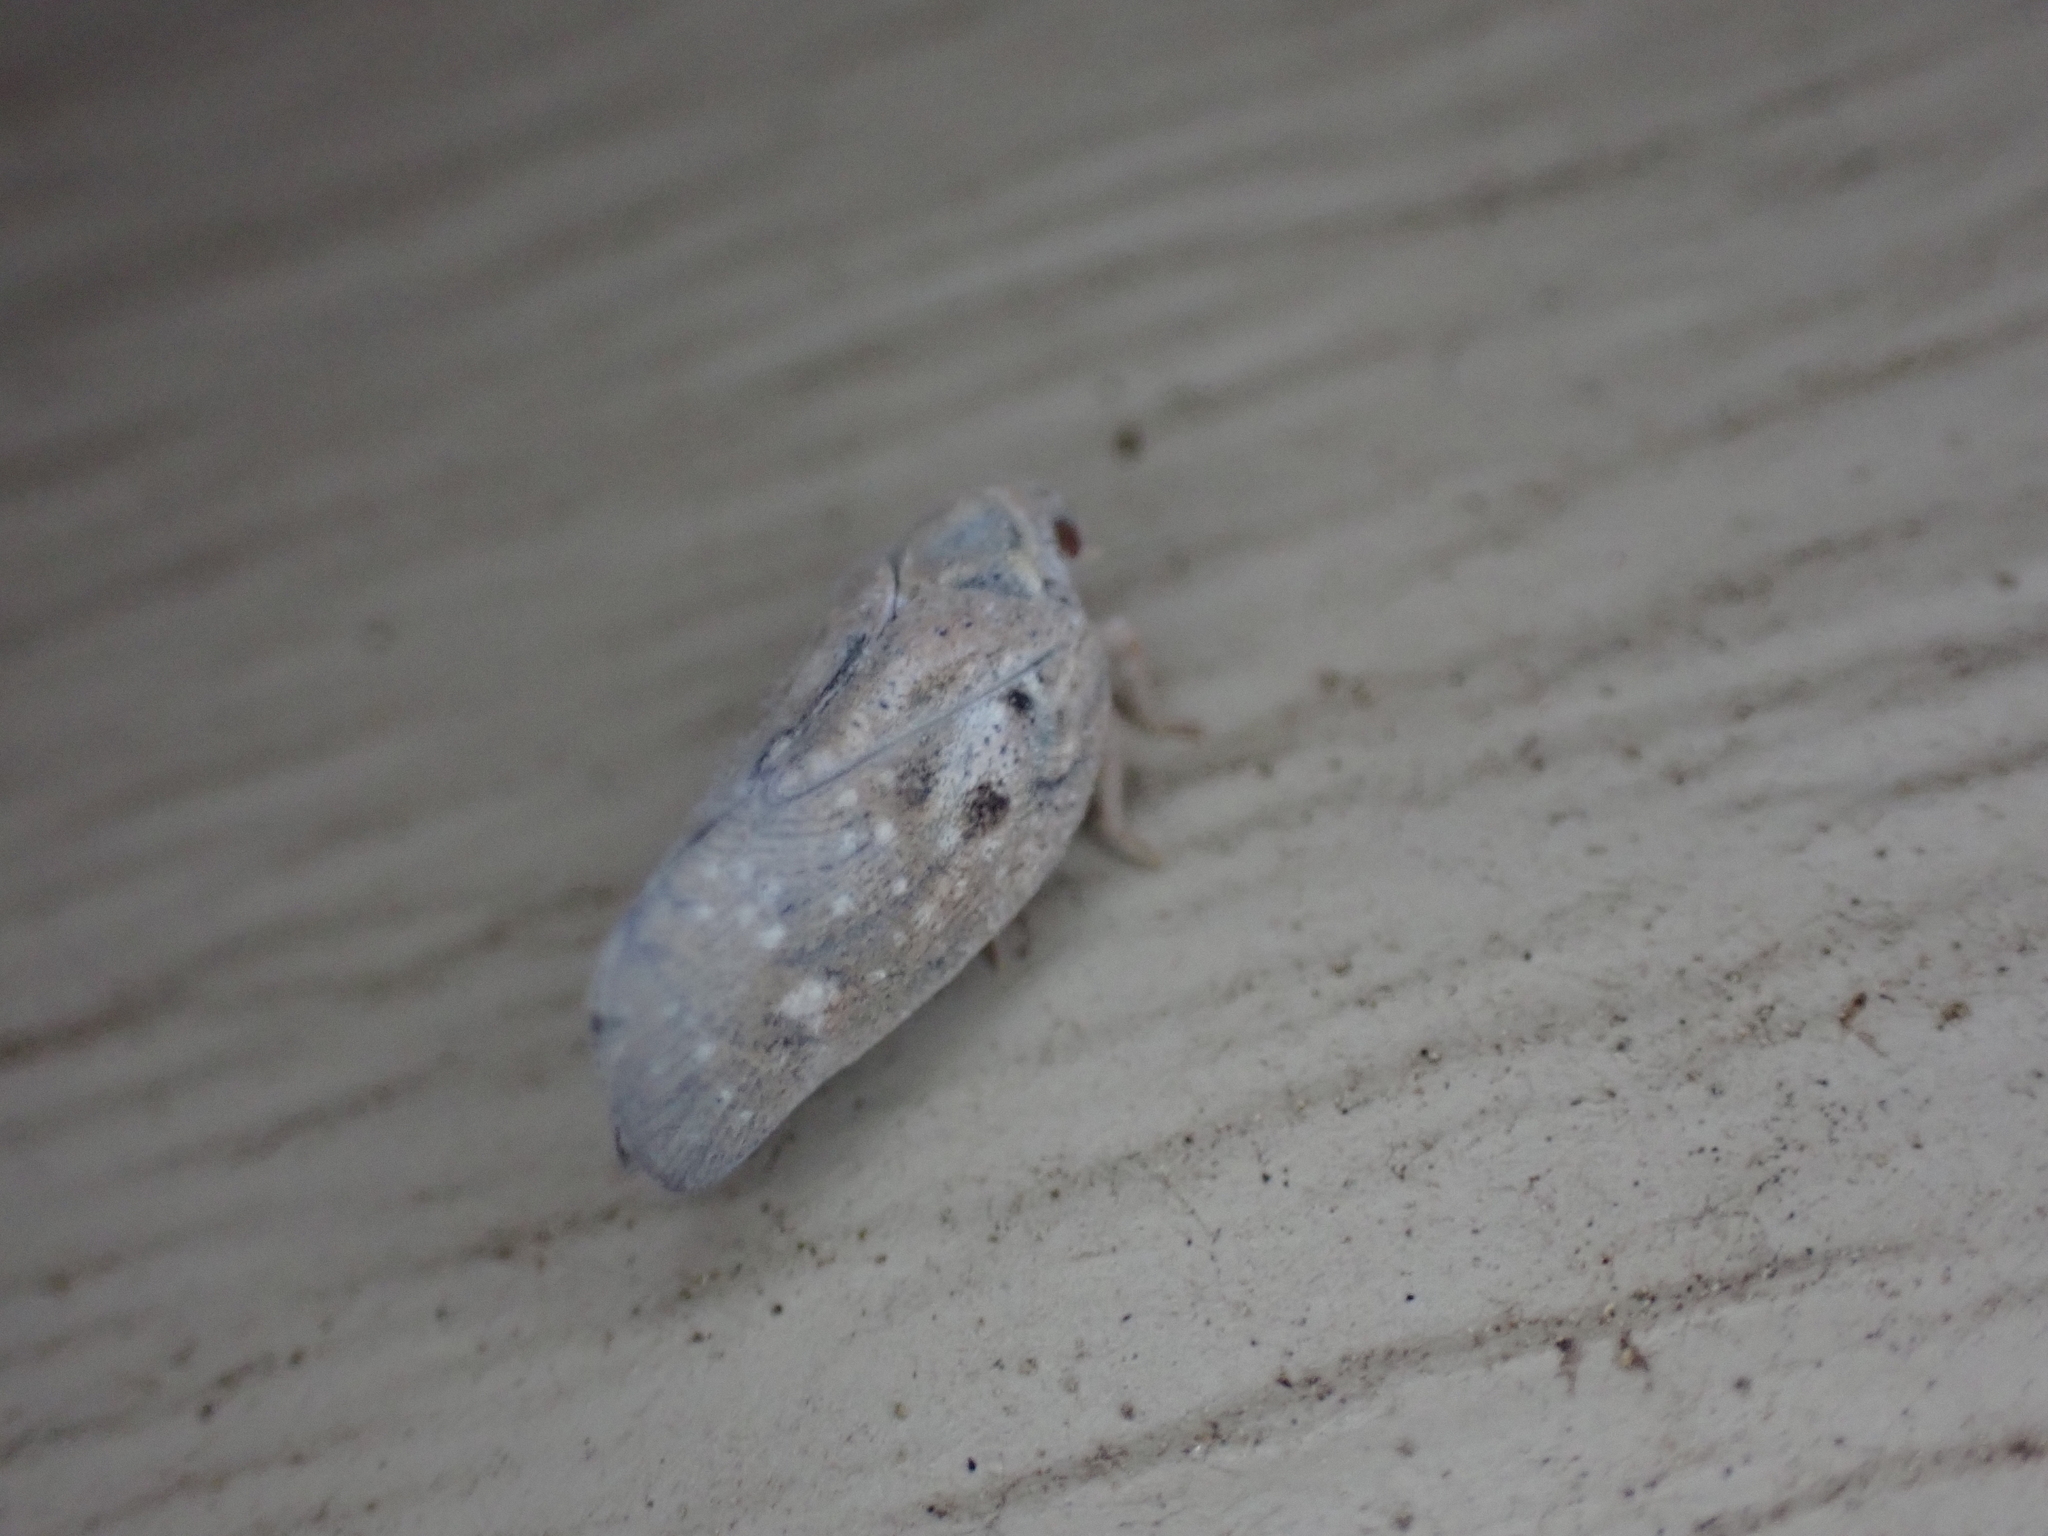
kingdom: Animalia
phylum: Arthropoda
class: Insecta
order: Hemiptera
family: Flatidae
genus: Metcalfa
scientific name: Metcalfa pruinosa
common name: Citrus flatid planthopper
